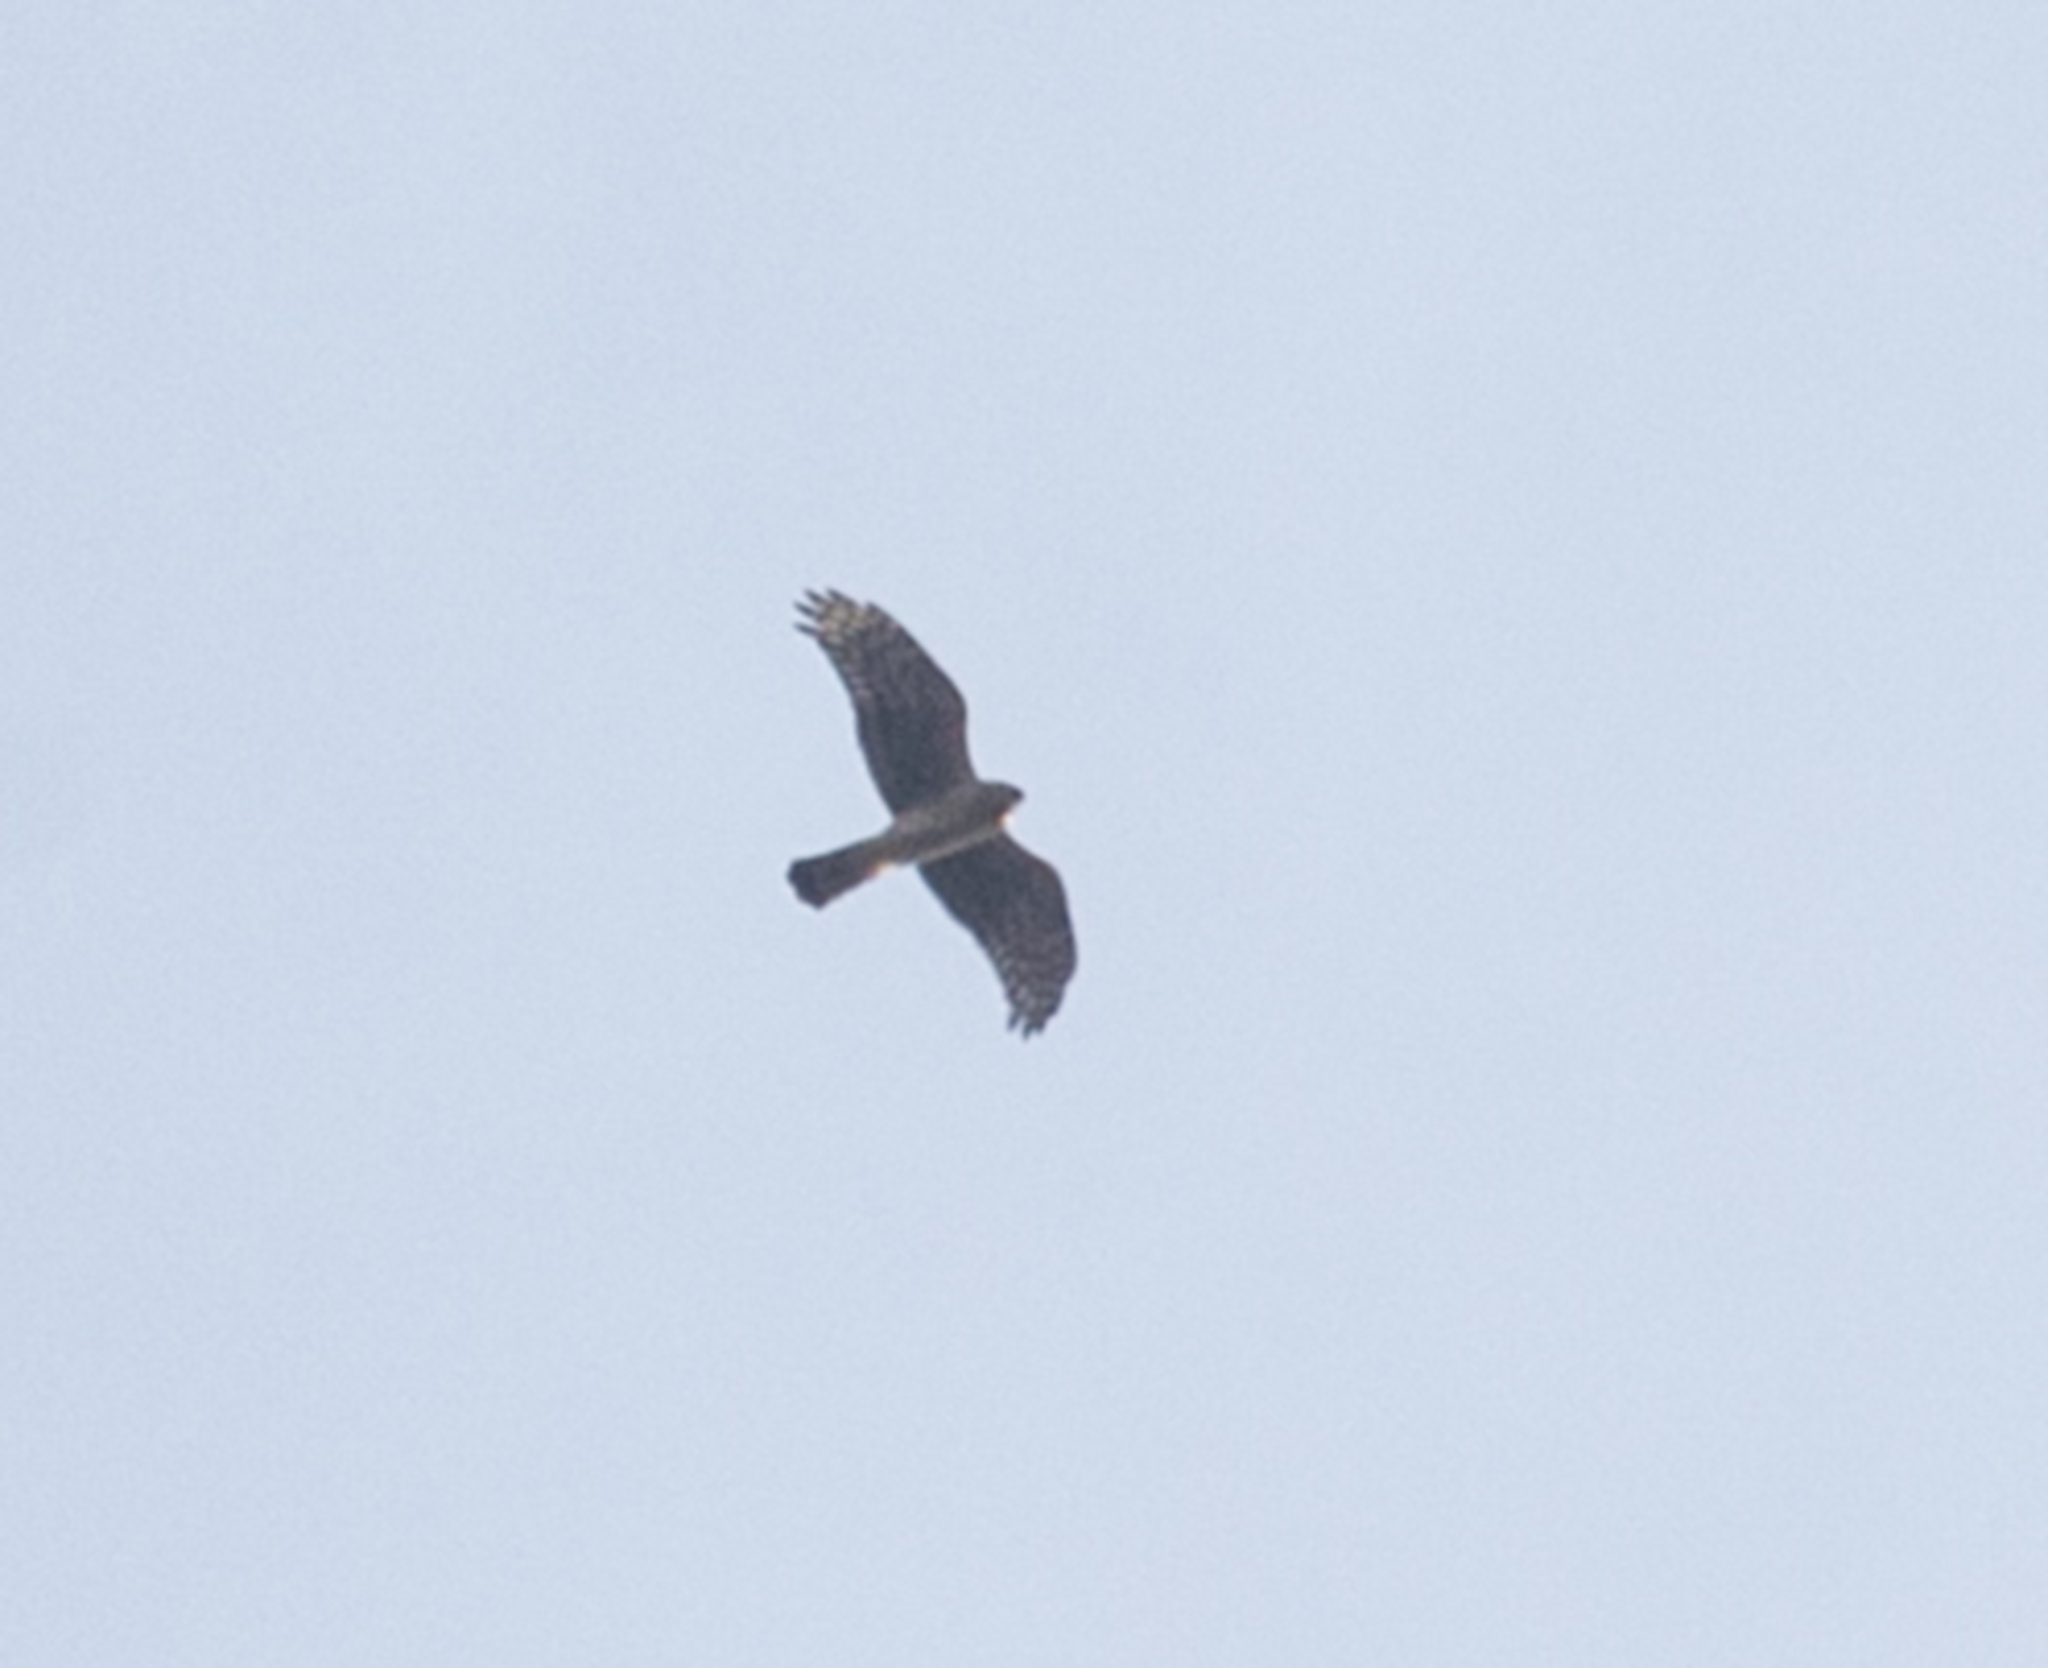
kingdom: Animalia
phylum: Chordata
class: Aves
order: Accipitriformes
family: Accipitridae
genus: Circus
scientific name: Circus cyaneus
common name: Hen harrier
